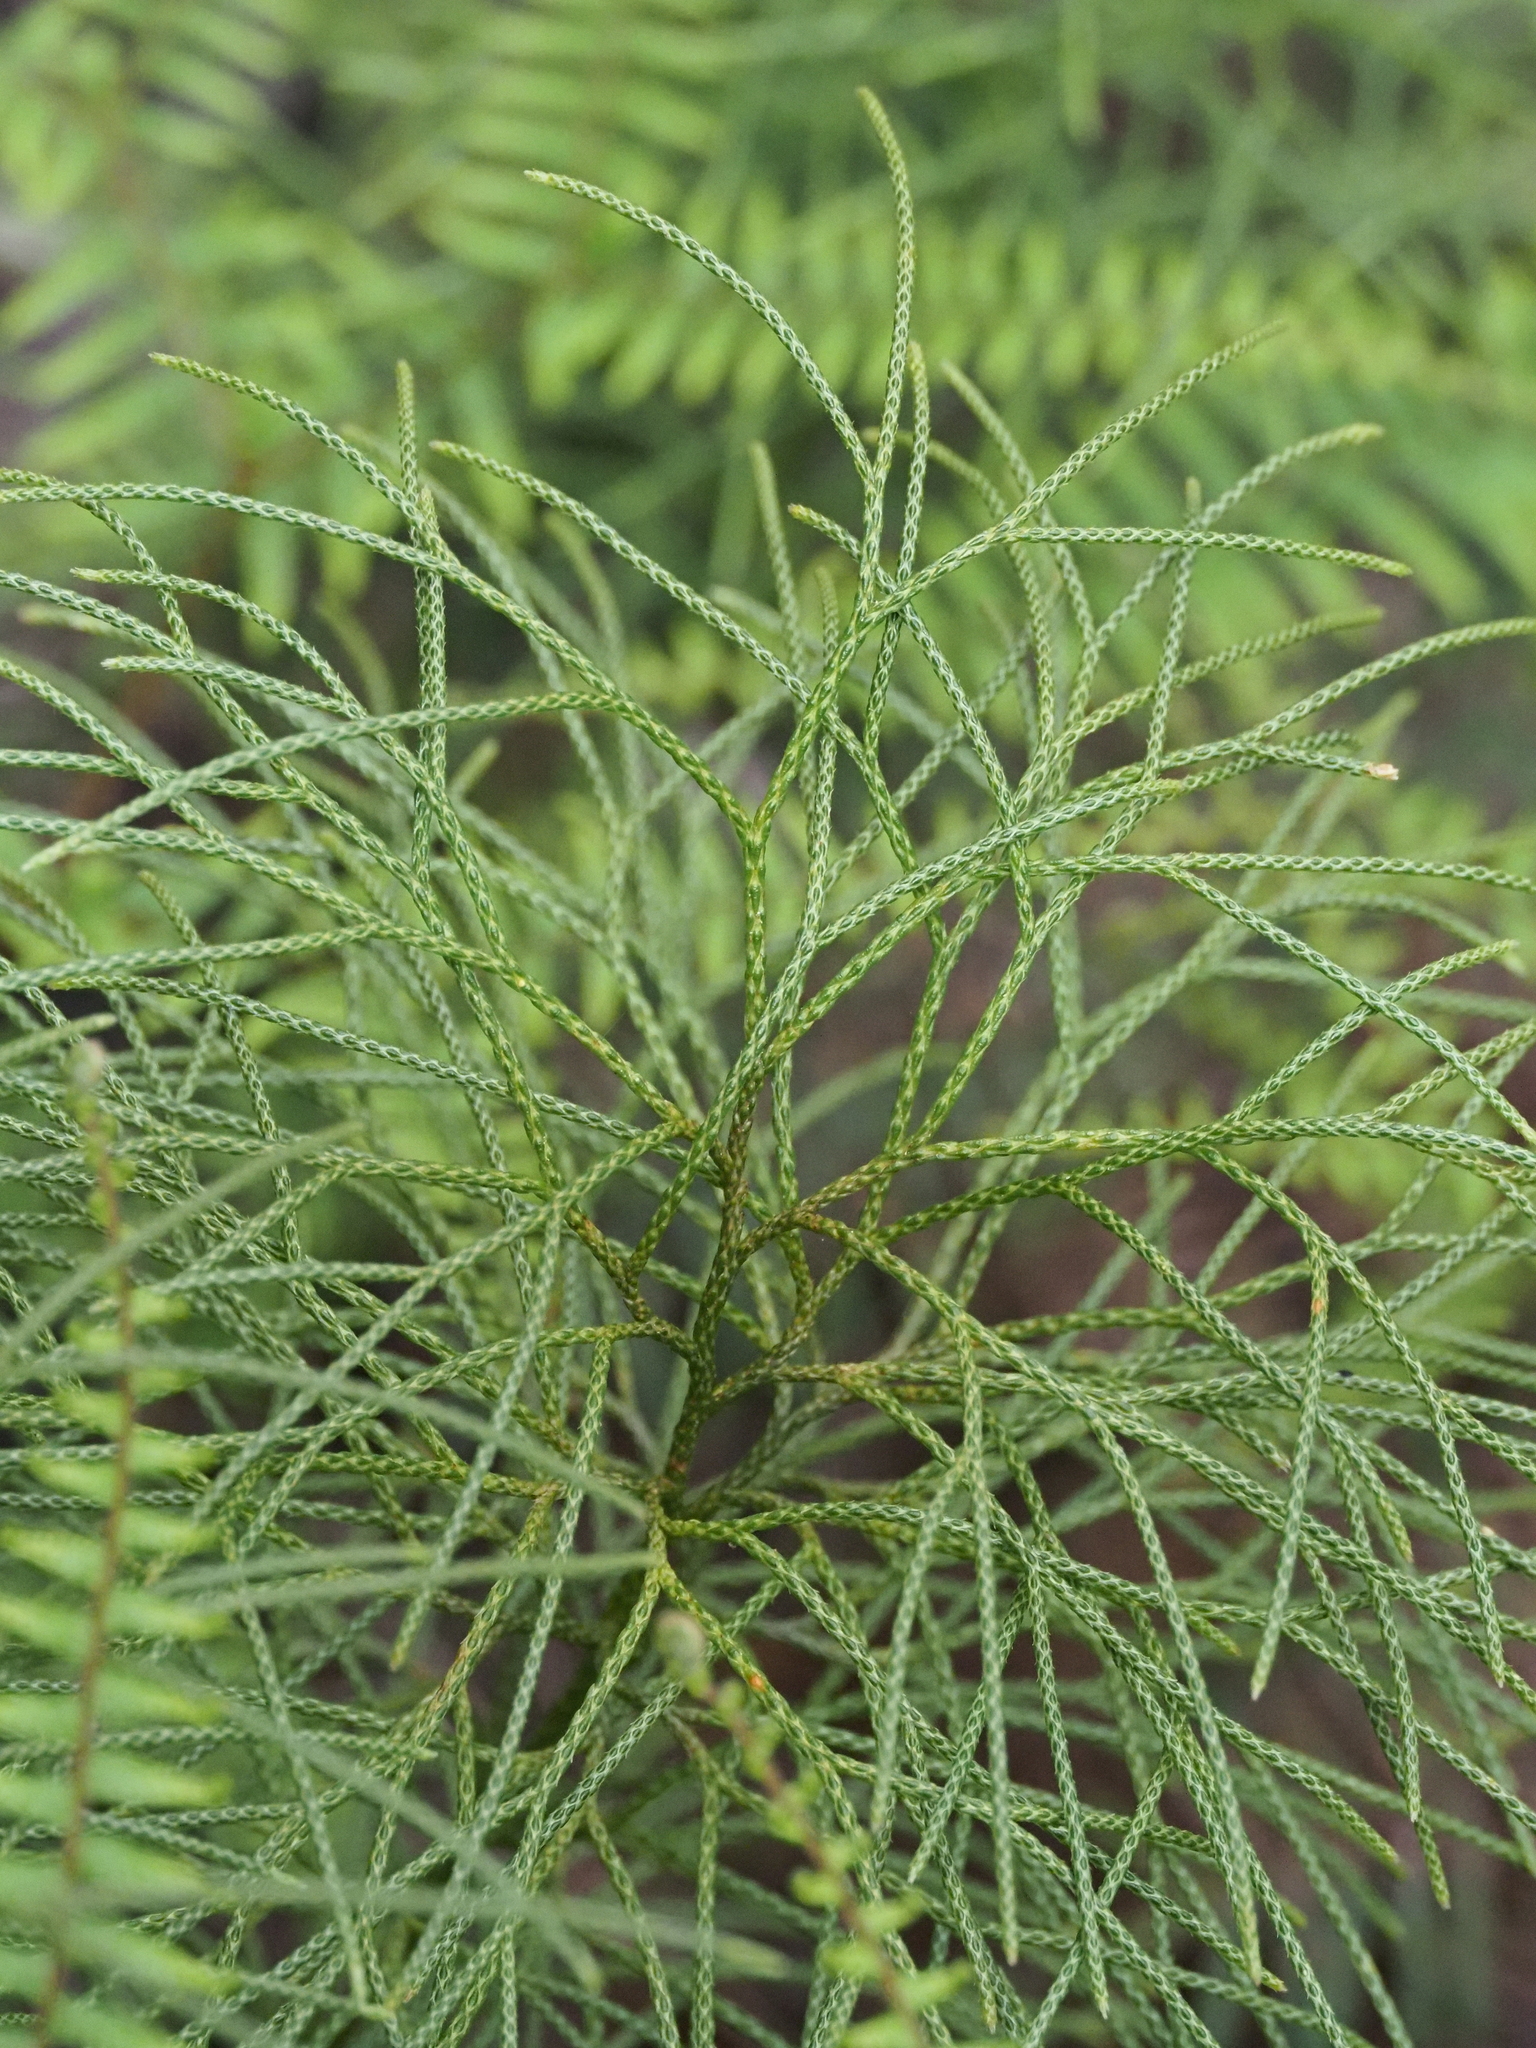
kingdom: Plantae
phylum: Tracheophyta
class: Lycopodiopsida
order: Lycopodiales
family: Lycopodiaceae
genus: Pseudolycopodium
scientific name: Pseudolycopodium densum
